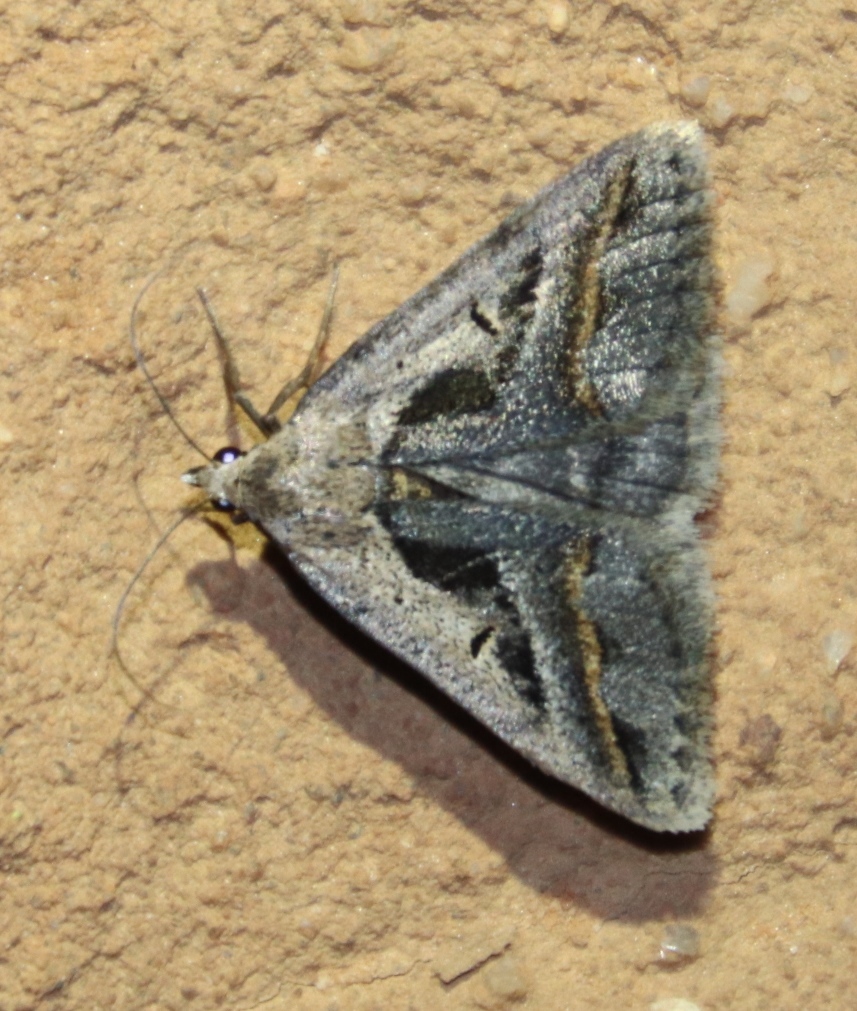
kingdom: Animalia
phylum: Arthropoda
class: Insecta
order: Lepidoptera
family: Erebidae
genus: Acantholipes
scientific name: Acantholipes trimeni
